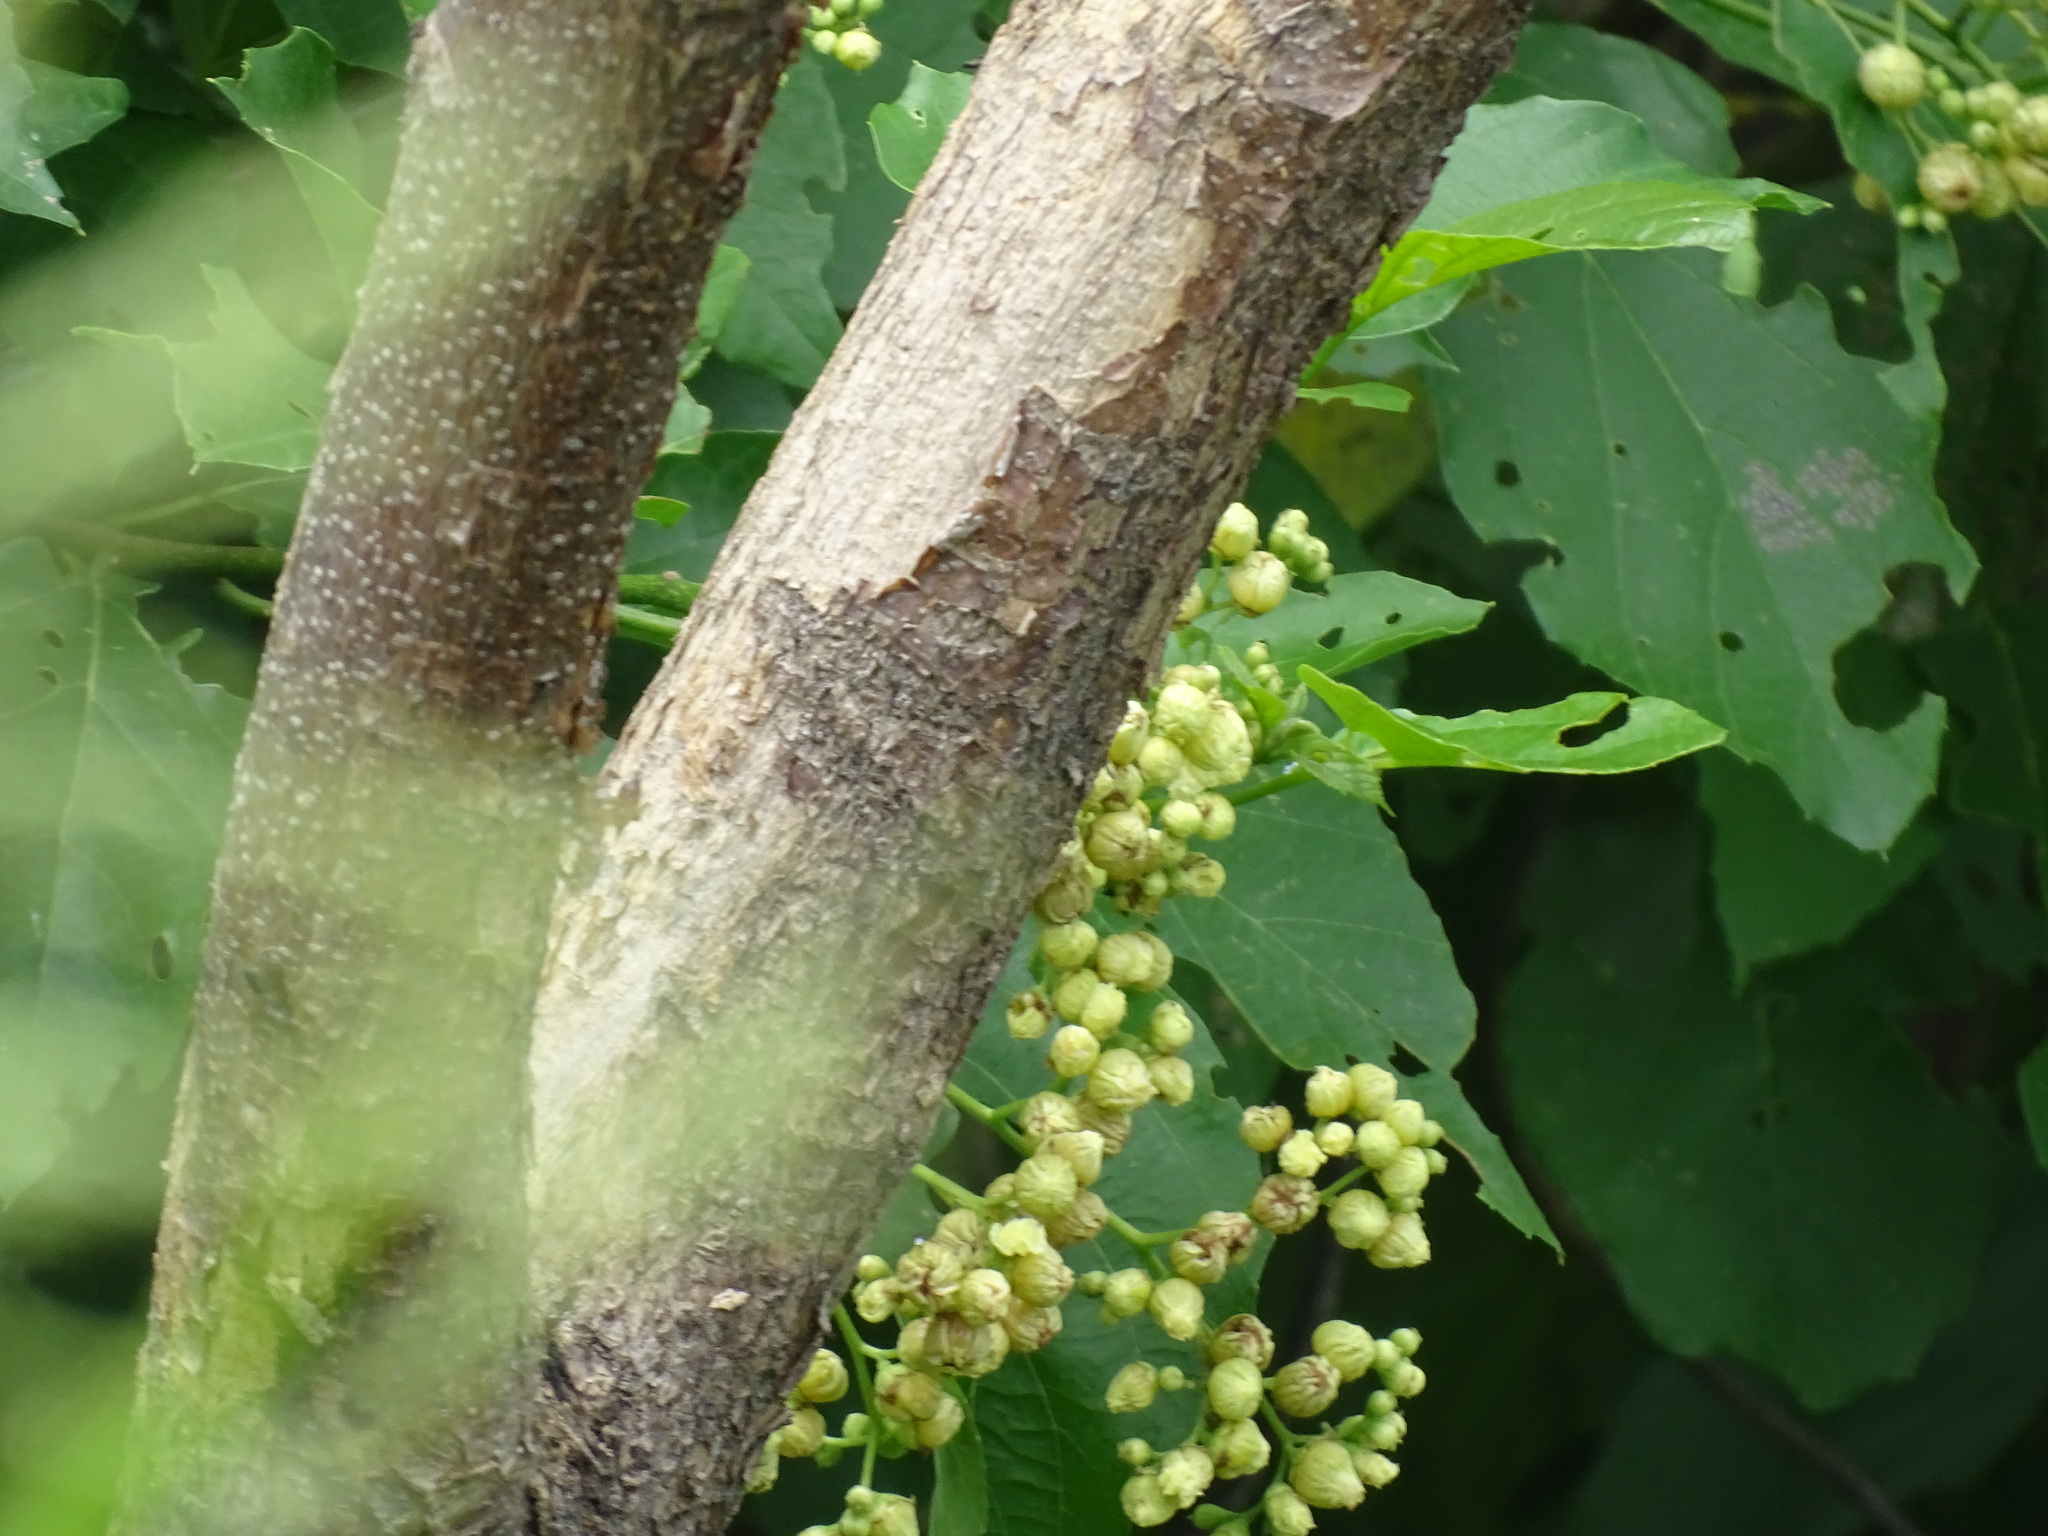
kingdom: Plantae
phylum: Tracheophyta
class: Magnoliopsida
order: Boraginales
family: Cordiaceae
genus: Cordia
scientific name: Cordia dentata
